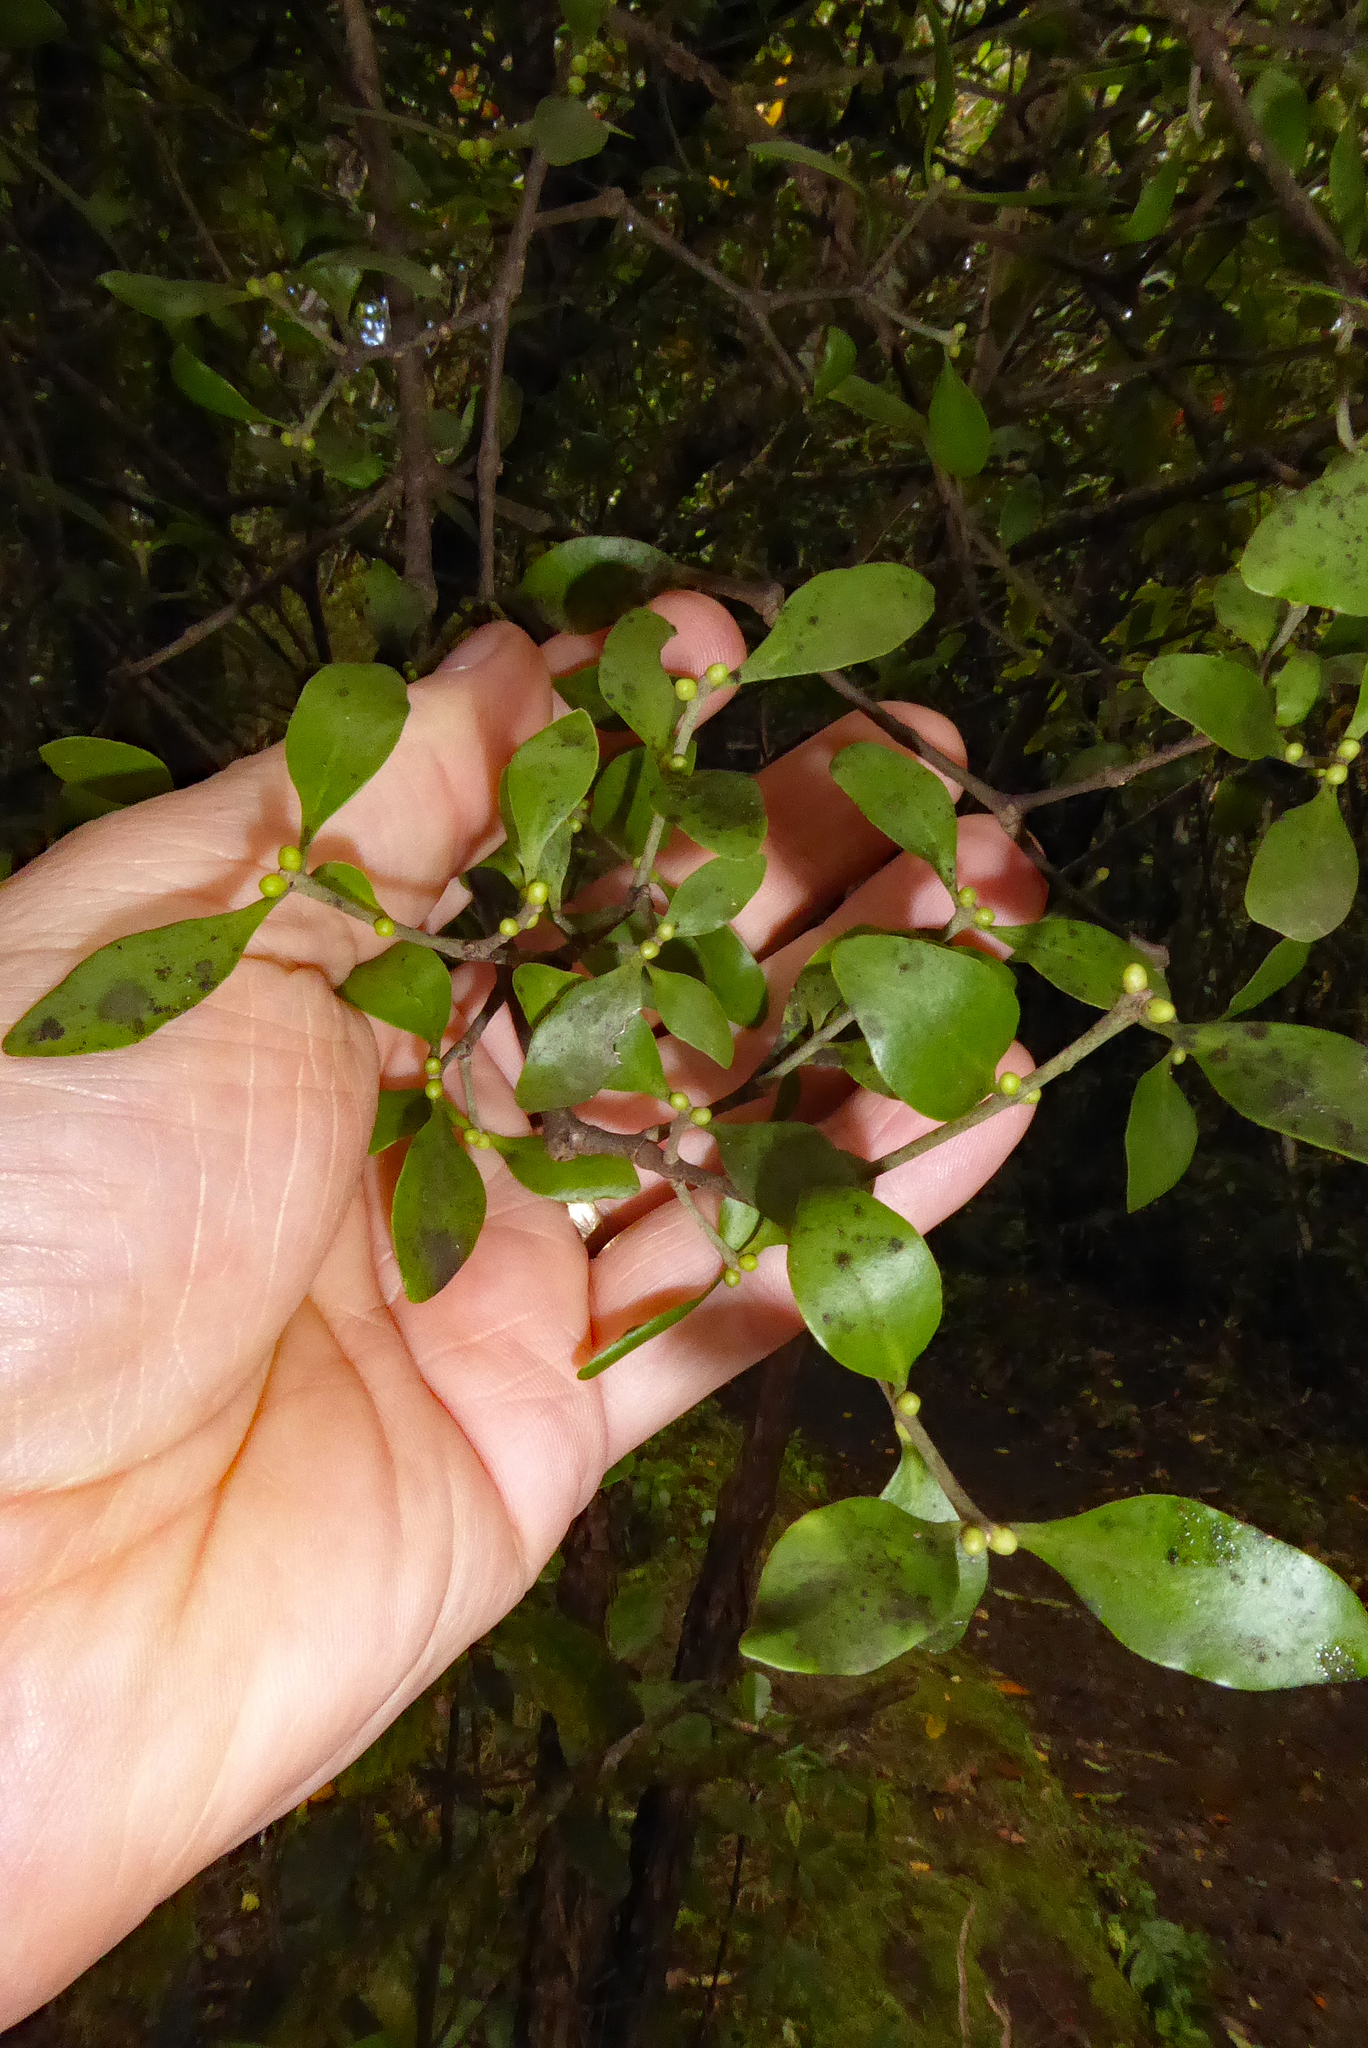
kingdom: Plantae
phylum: Tracheophyta
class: Magnoliopsida
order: Santalales
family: Loranthaceae
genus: Tupeia
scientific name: Tupeia antarctica
